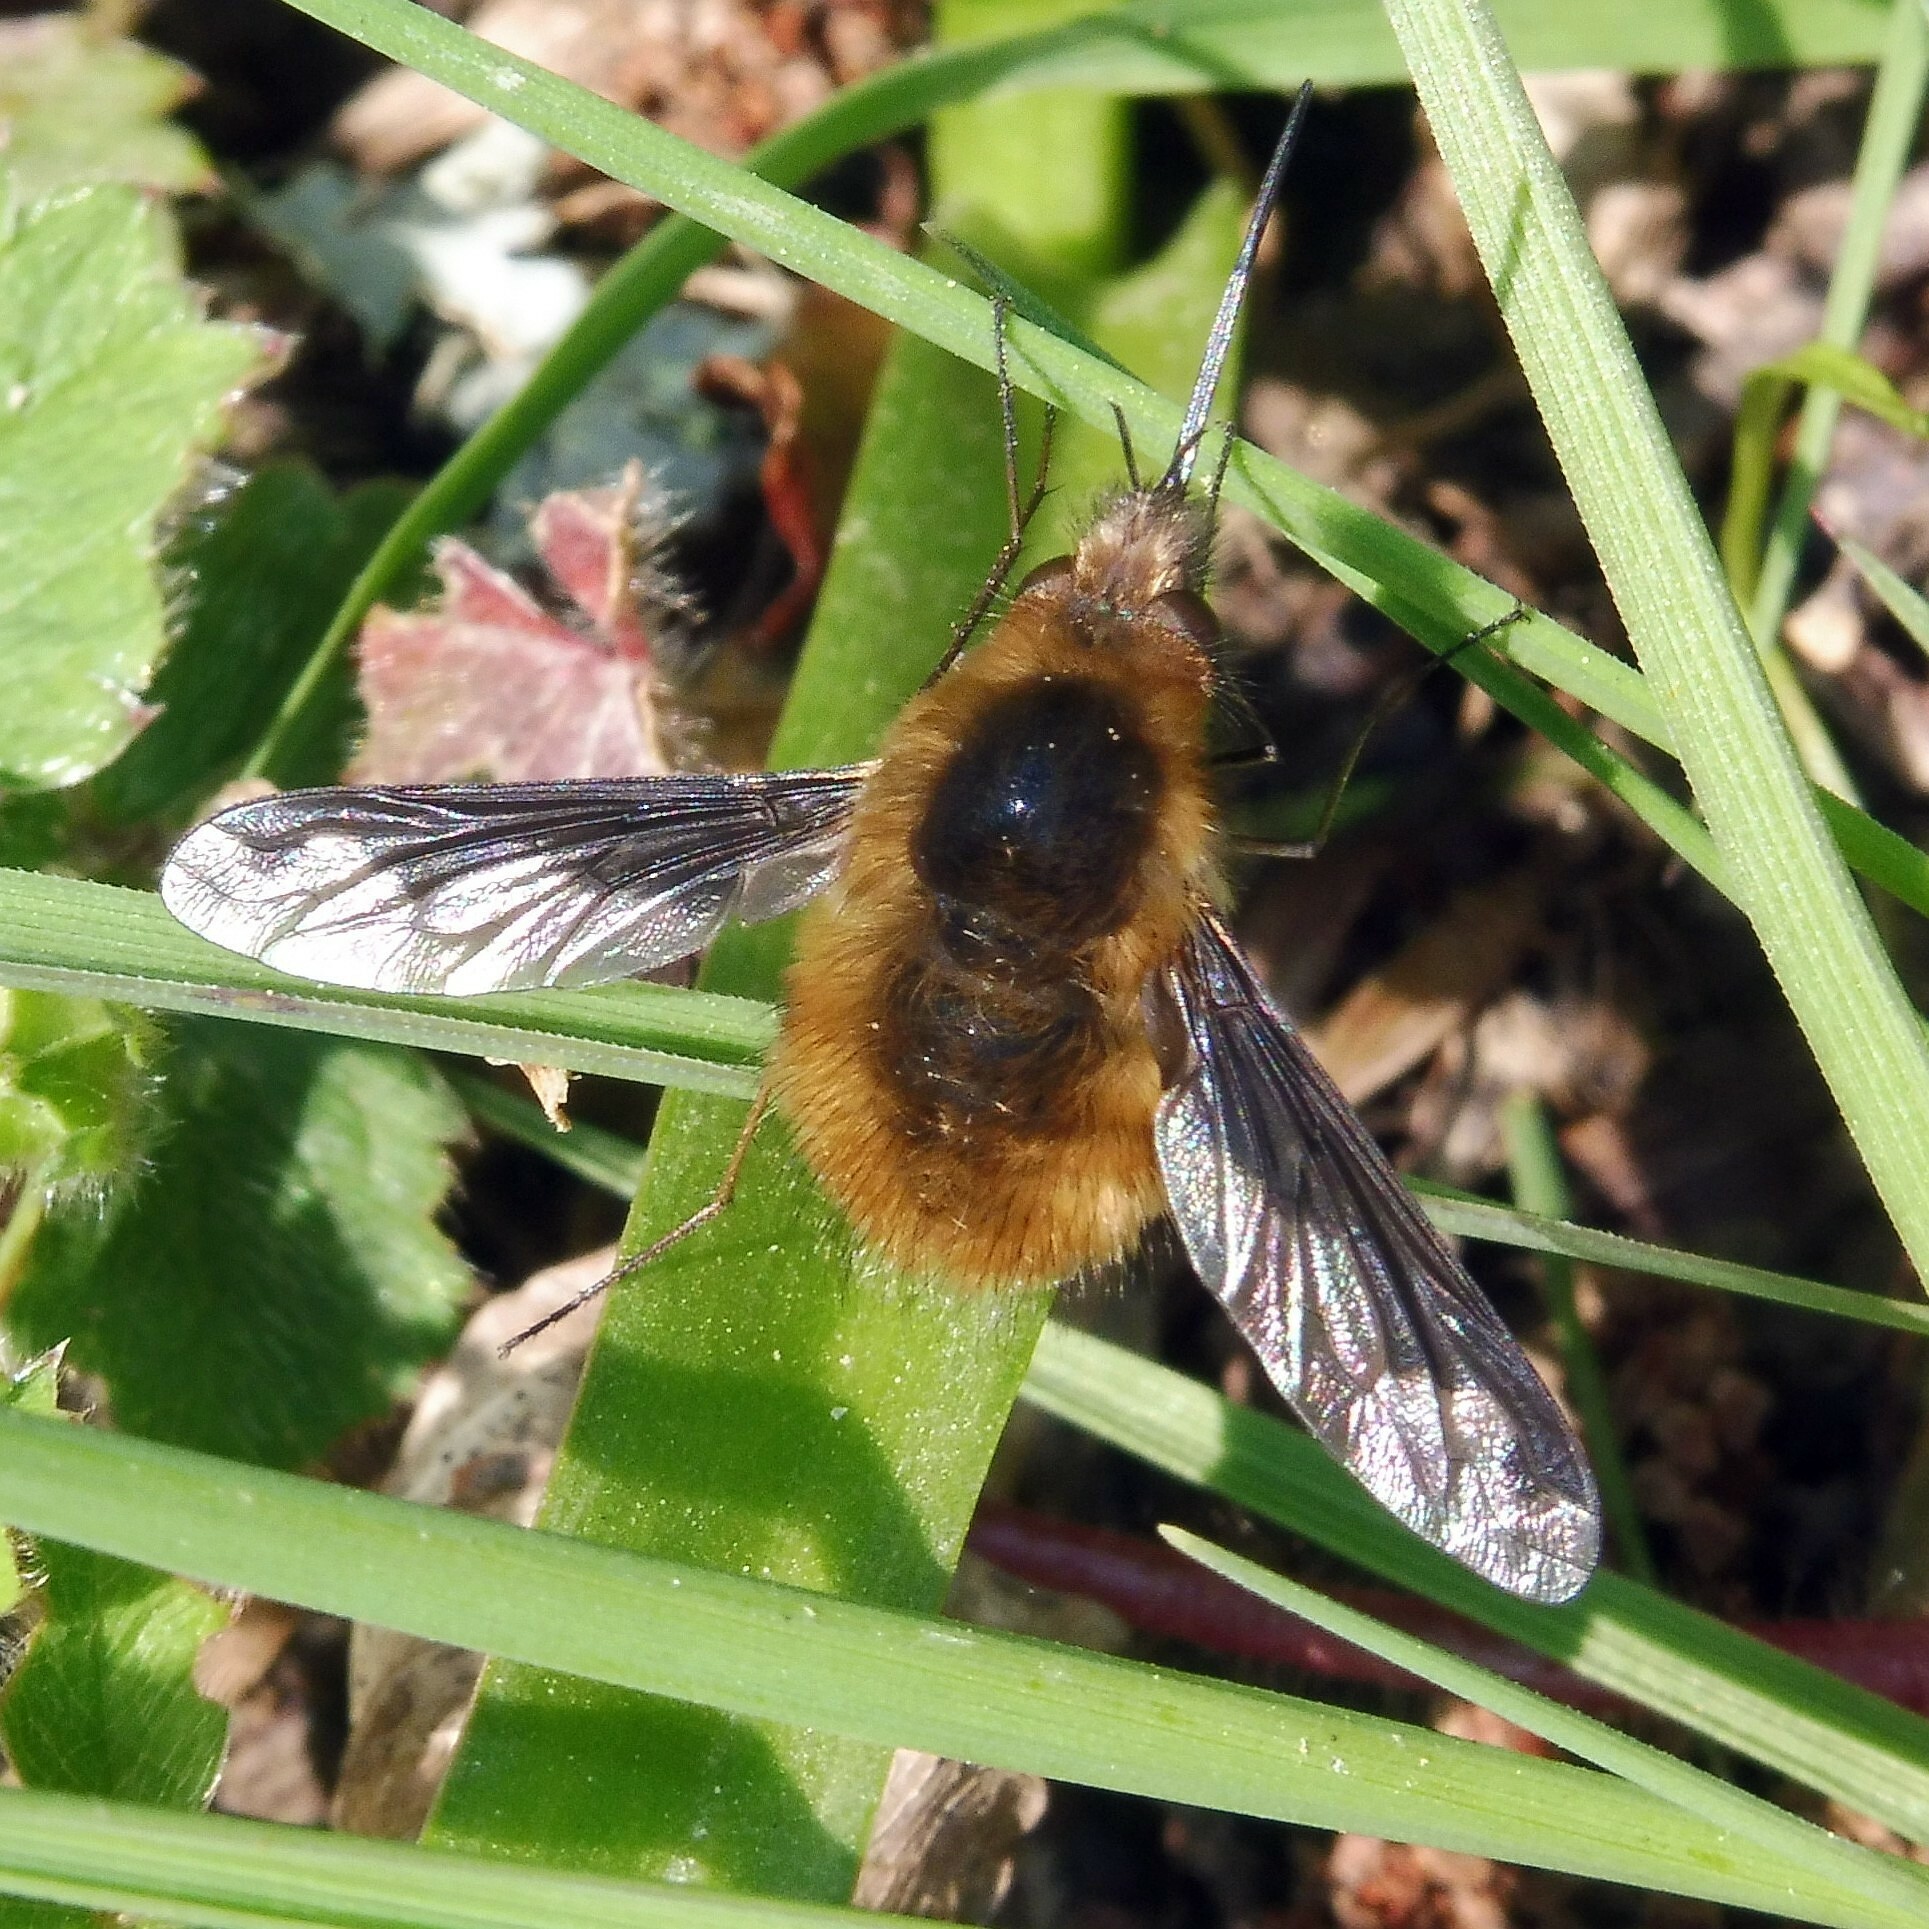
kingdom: Animalia
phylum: Arthropoda
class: Insecta
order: Diptera
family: Bombyliidae
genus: Bombylius
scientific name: Bombylius major
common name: Bee fly
